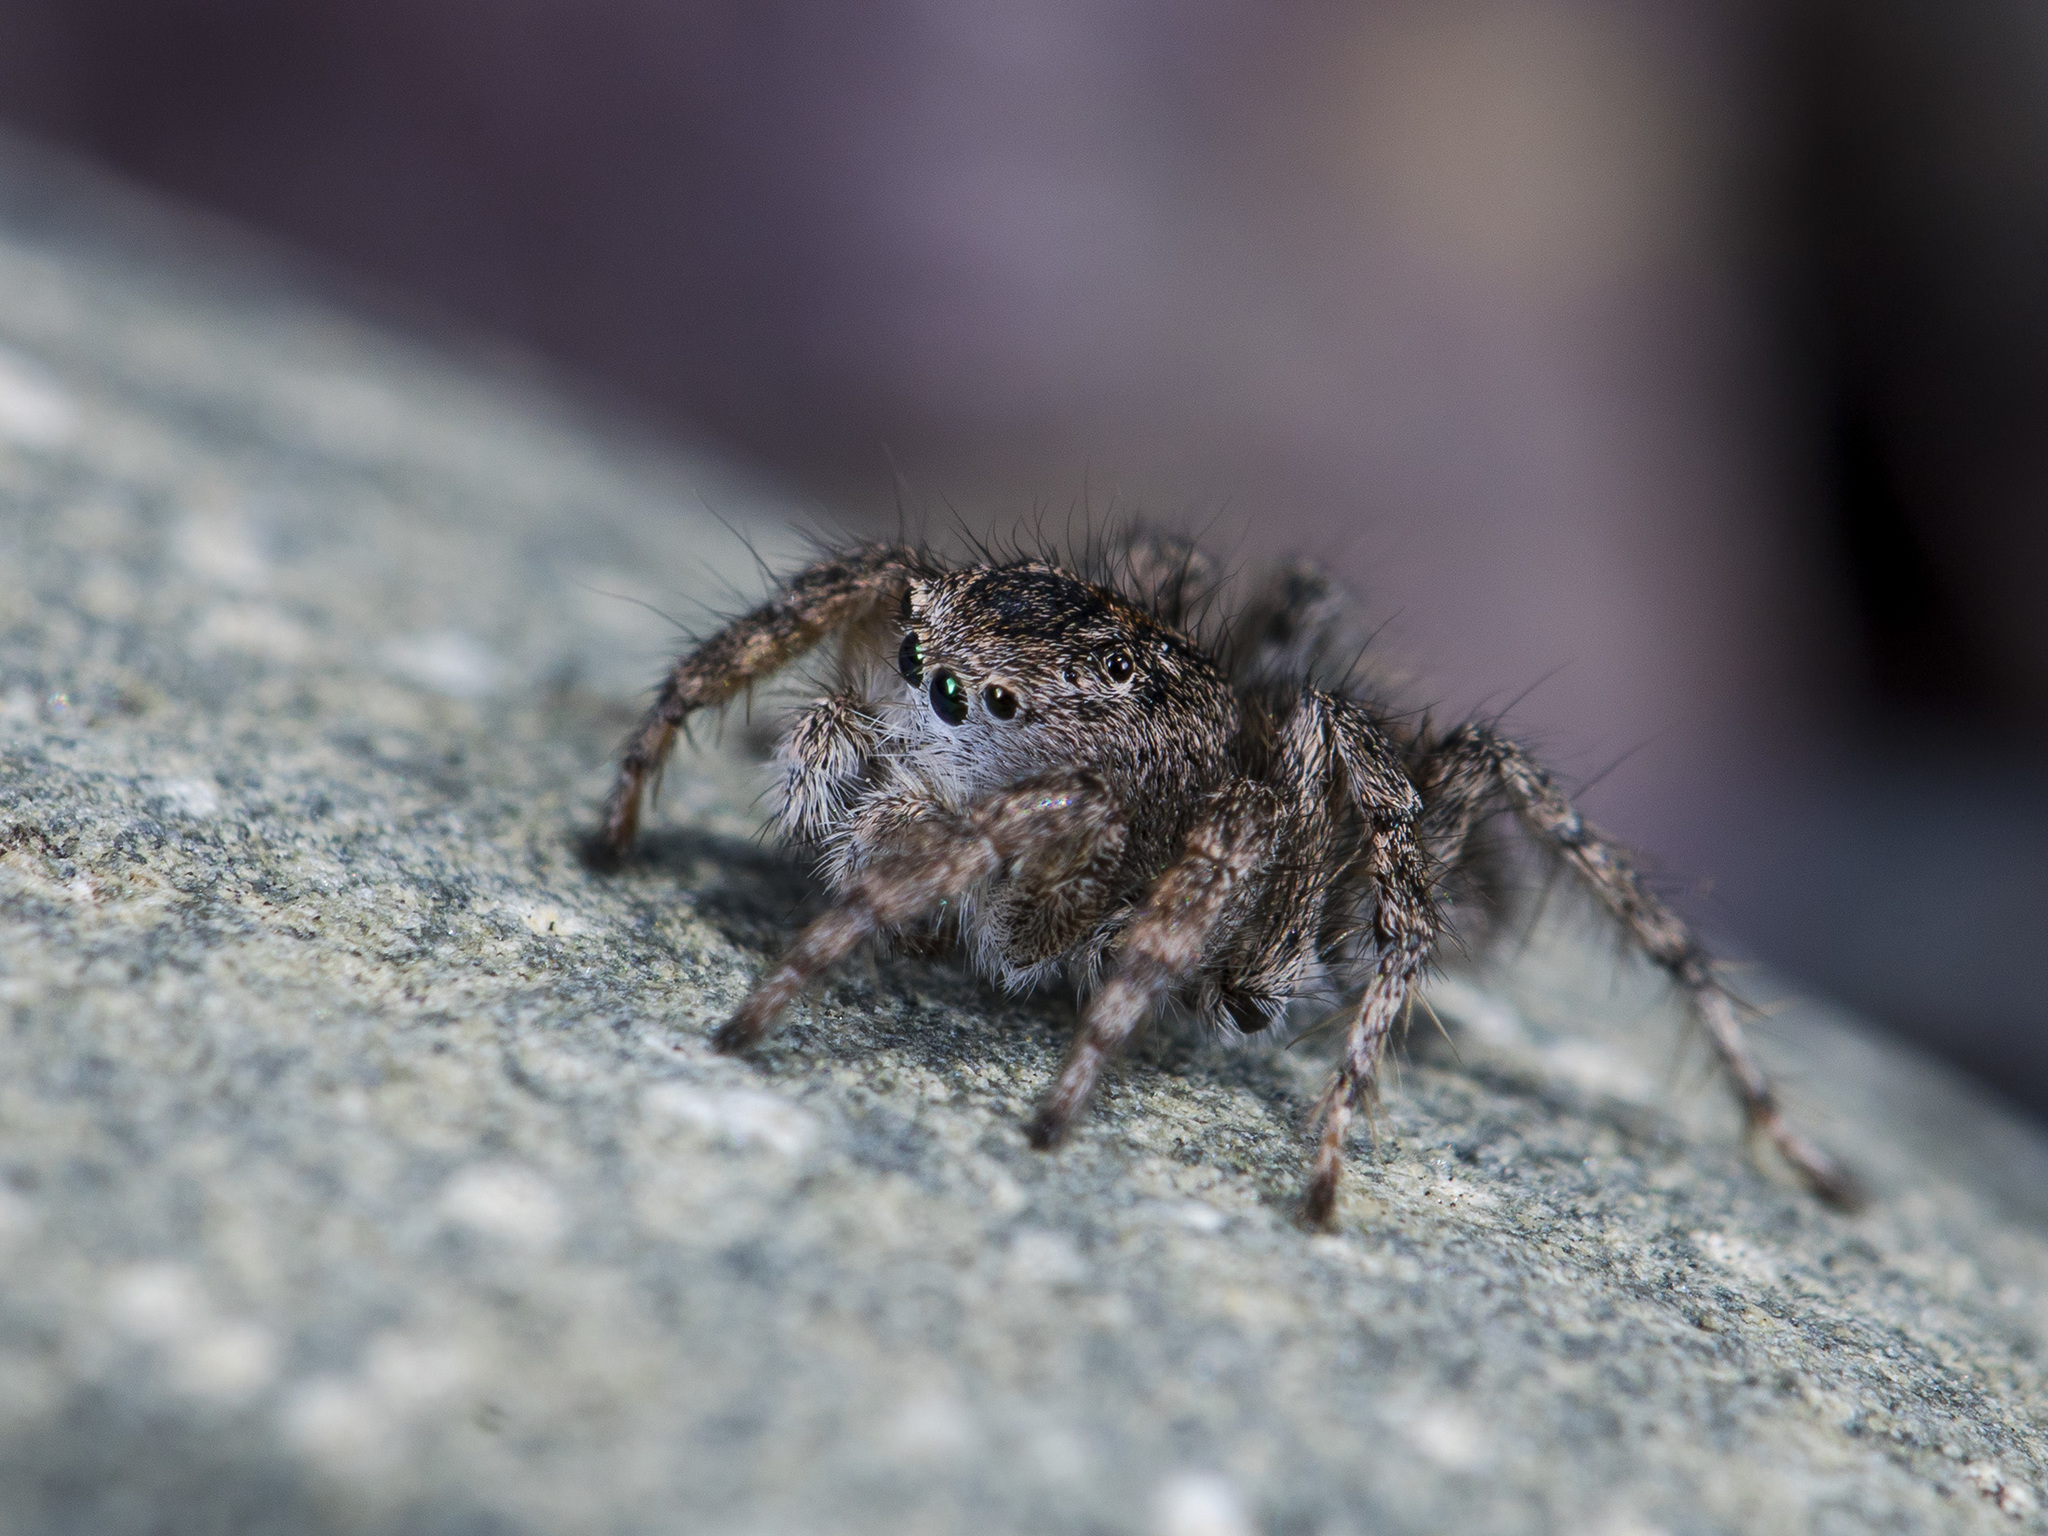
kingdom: Animalia
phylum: Arthropoda
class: Arachnida
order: Araneae
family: Salticidae
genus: Aelurillus
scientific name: Aelurillus dubatolovi
